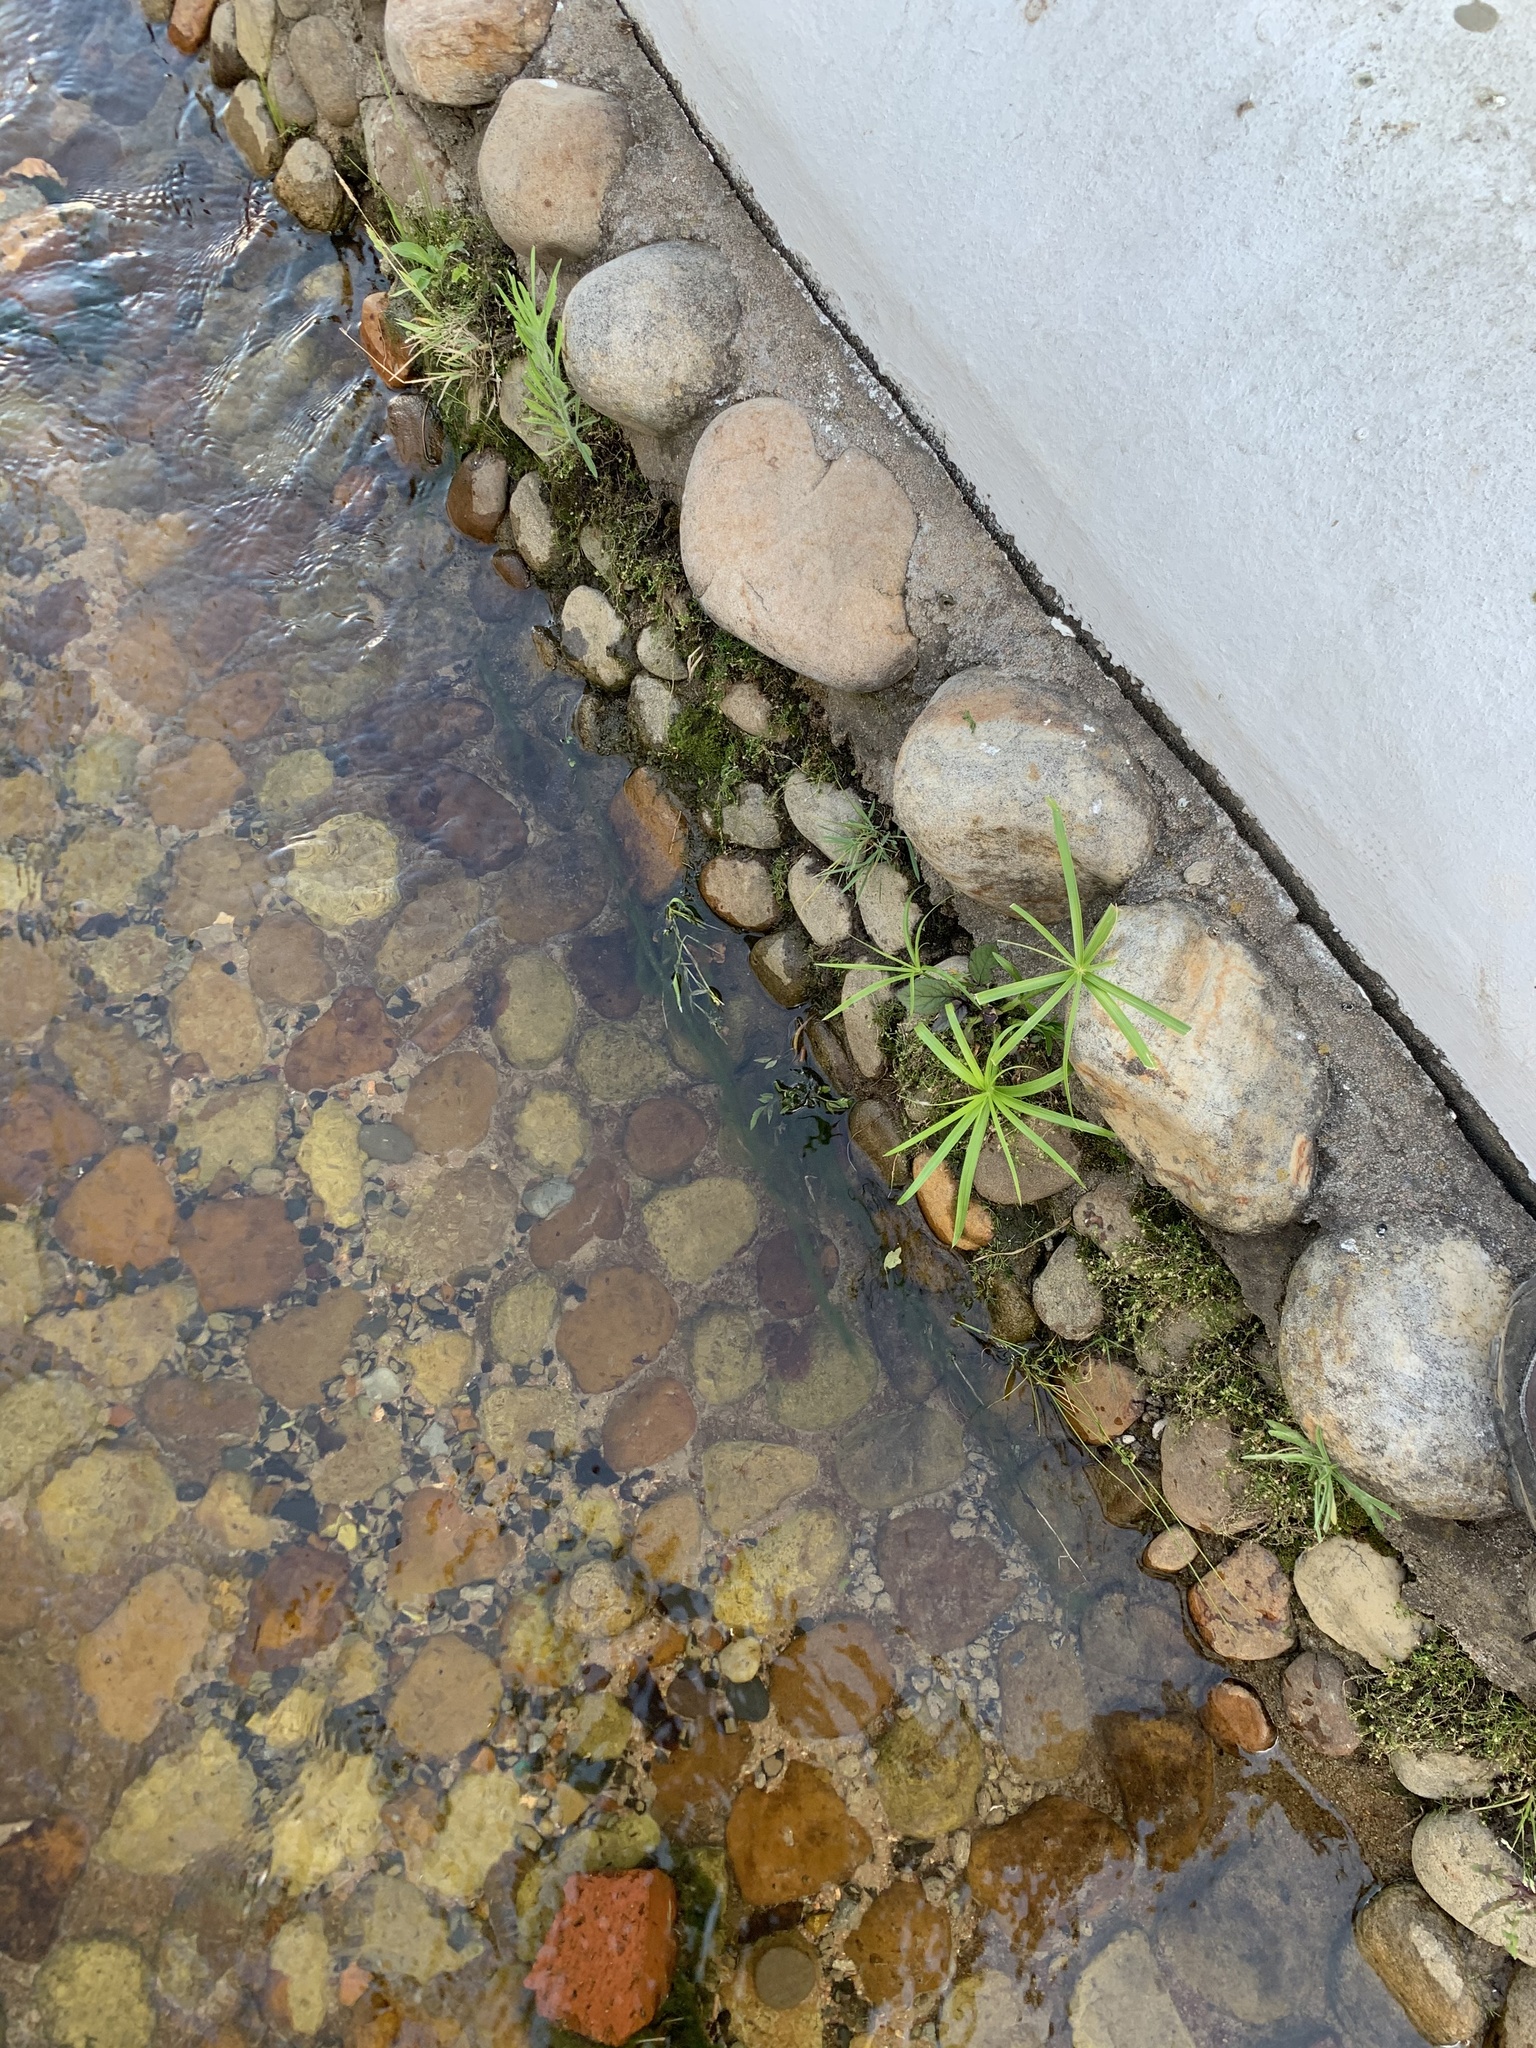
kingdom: Plantae
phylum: Tracheophyta
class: Liliopsida
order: Poales
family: Cyperaceae
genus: Cyperus
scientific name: Cyperus textilis
